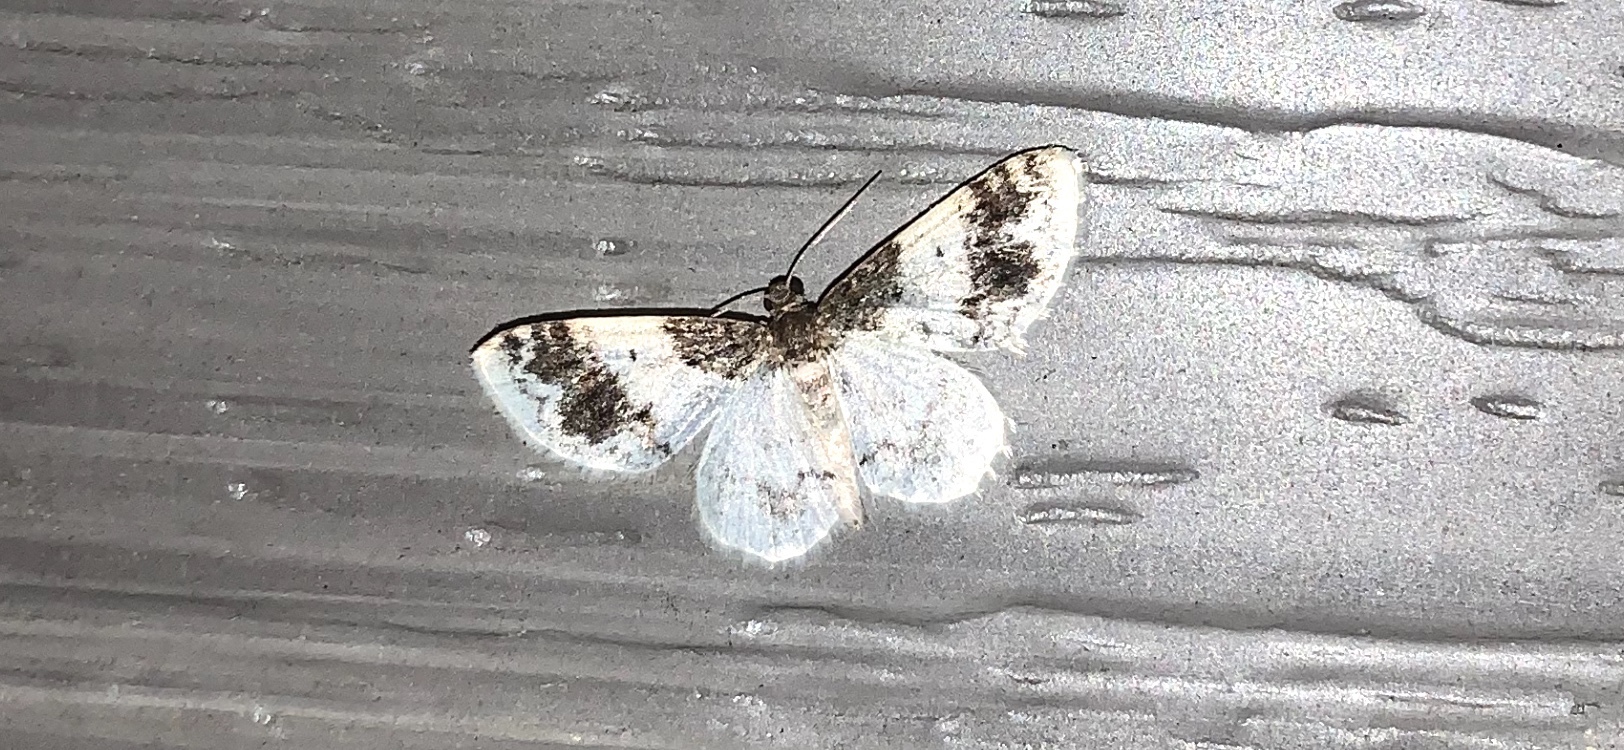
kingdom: Animalia
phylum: Arthropoda
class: Insecta
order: Lepidoptera
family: Geometridae
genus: Hydrelia
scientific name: Hydrelia condensata
